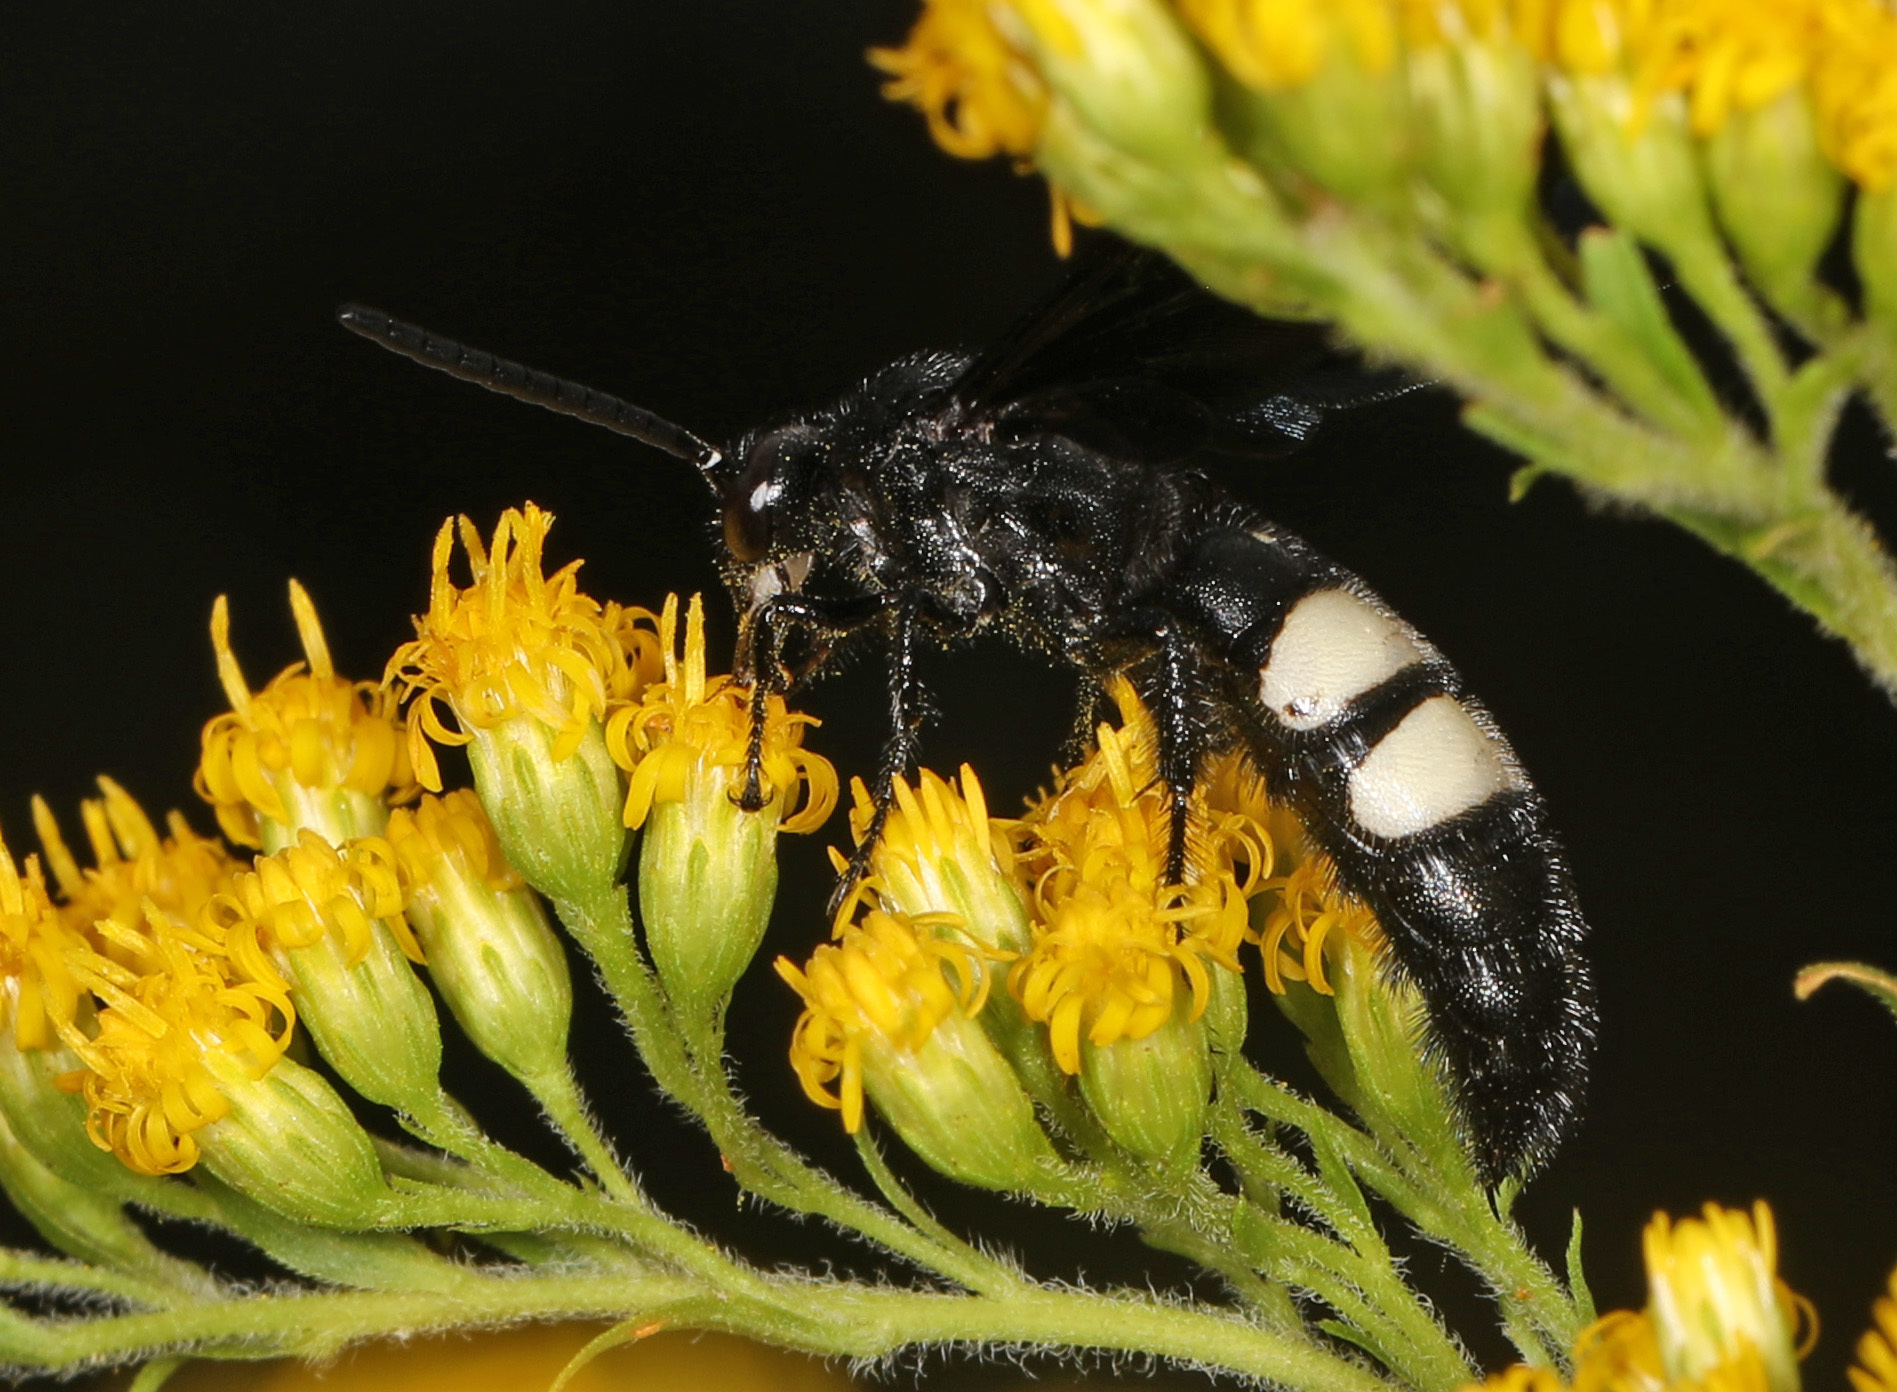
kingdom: Animalia
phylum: Arthropoda
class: Insecta
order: Hymenoptera
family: Scoliidae
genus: Scolia
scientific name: Scolia bicincta
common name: Double-banded scoliid wasp
